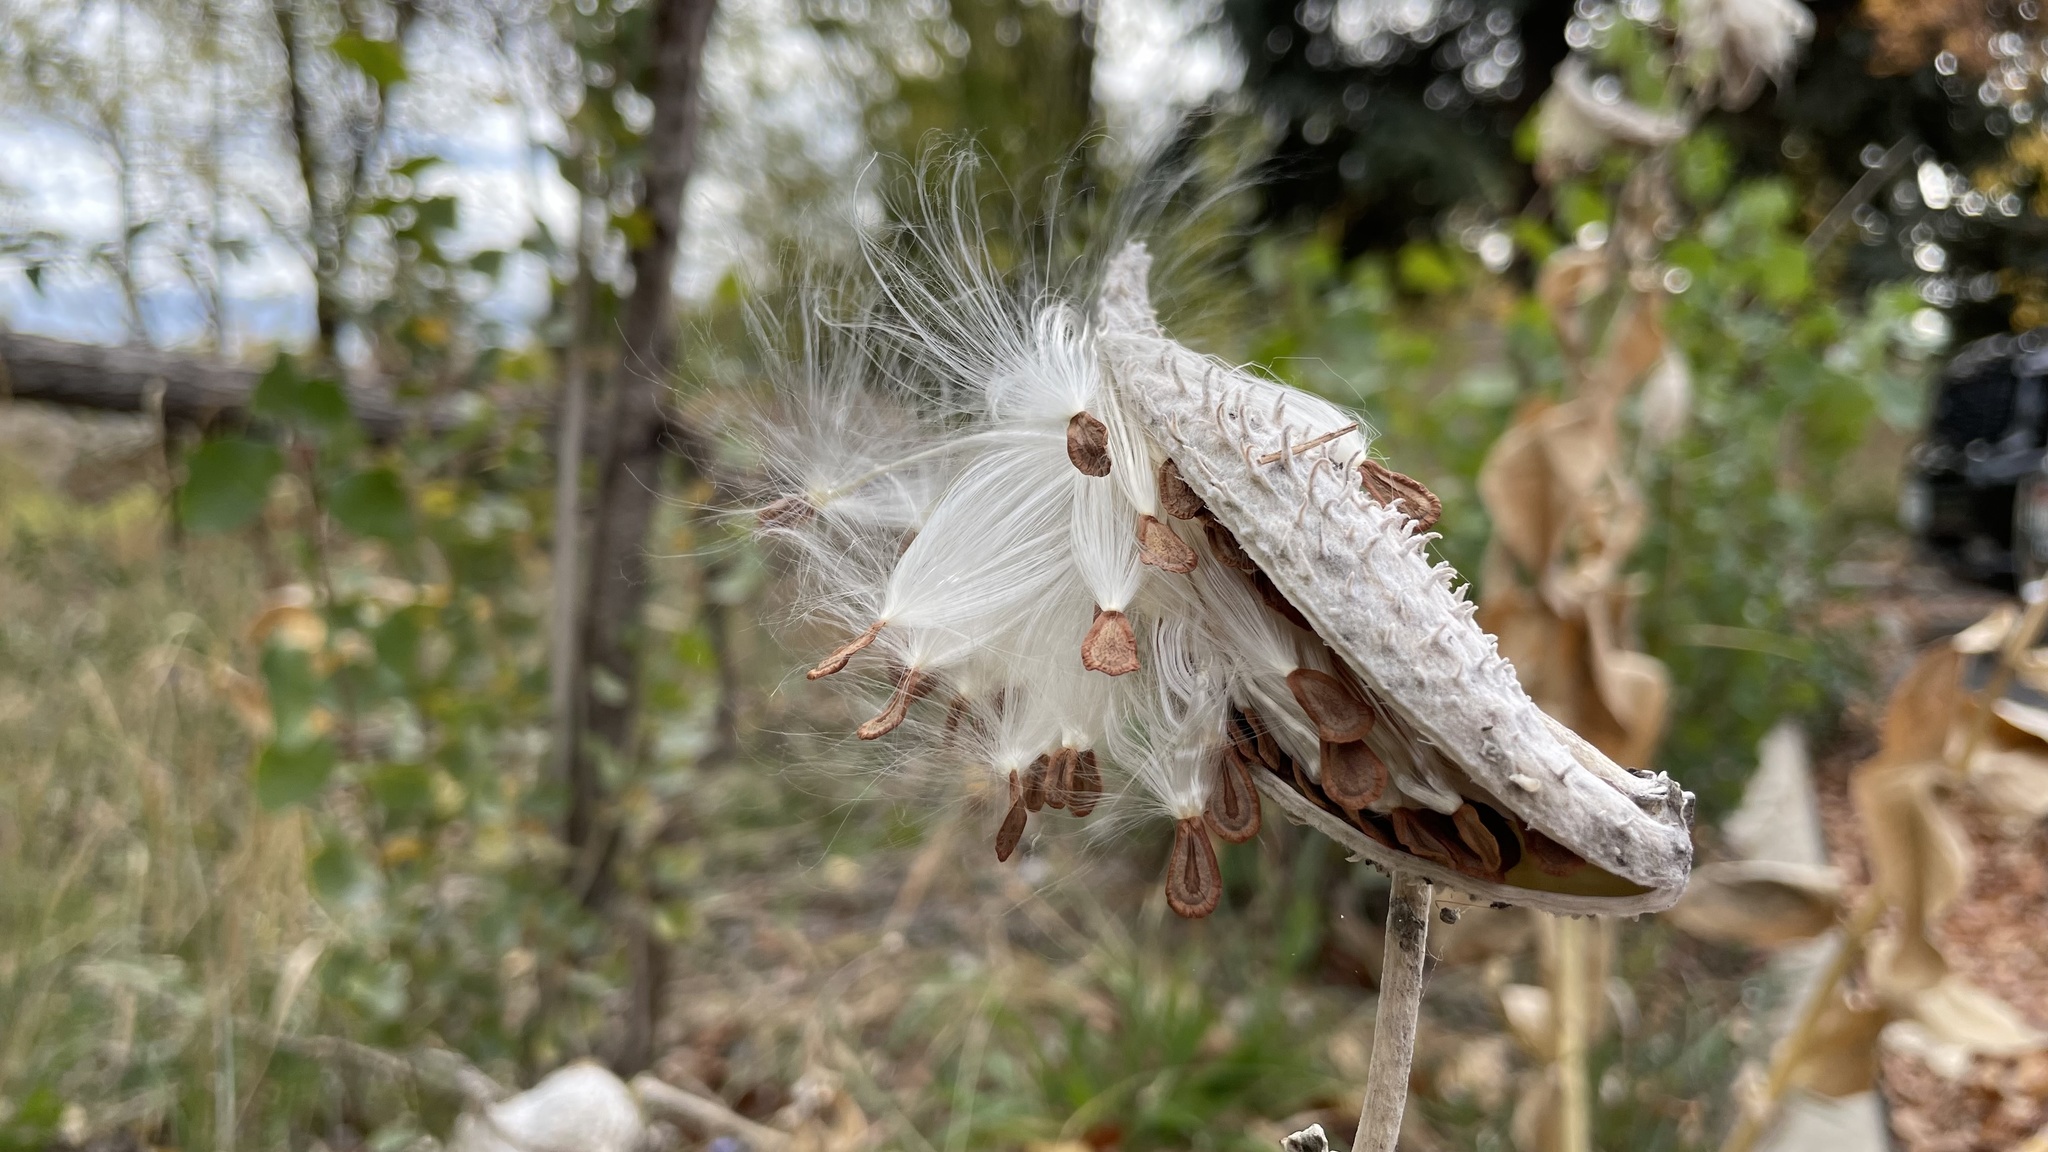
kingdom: Plantae
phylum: Tracheophyta
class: Magnoliopsida
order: Gentianales
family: Apocynaceae
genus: Asclepias
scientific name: Asclepias speciosa
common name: Showy milkweed
